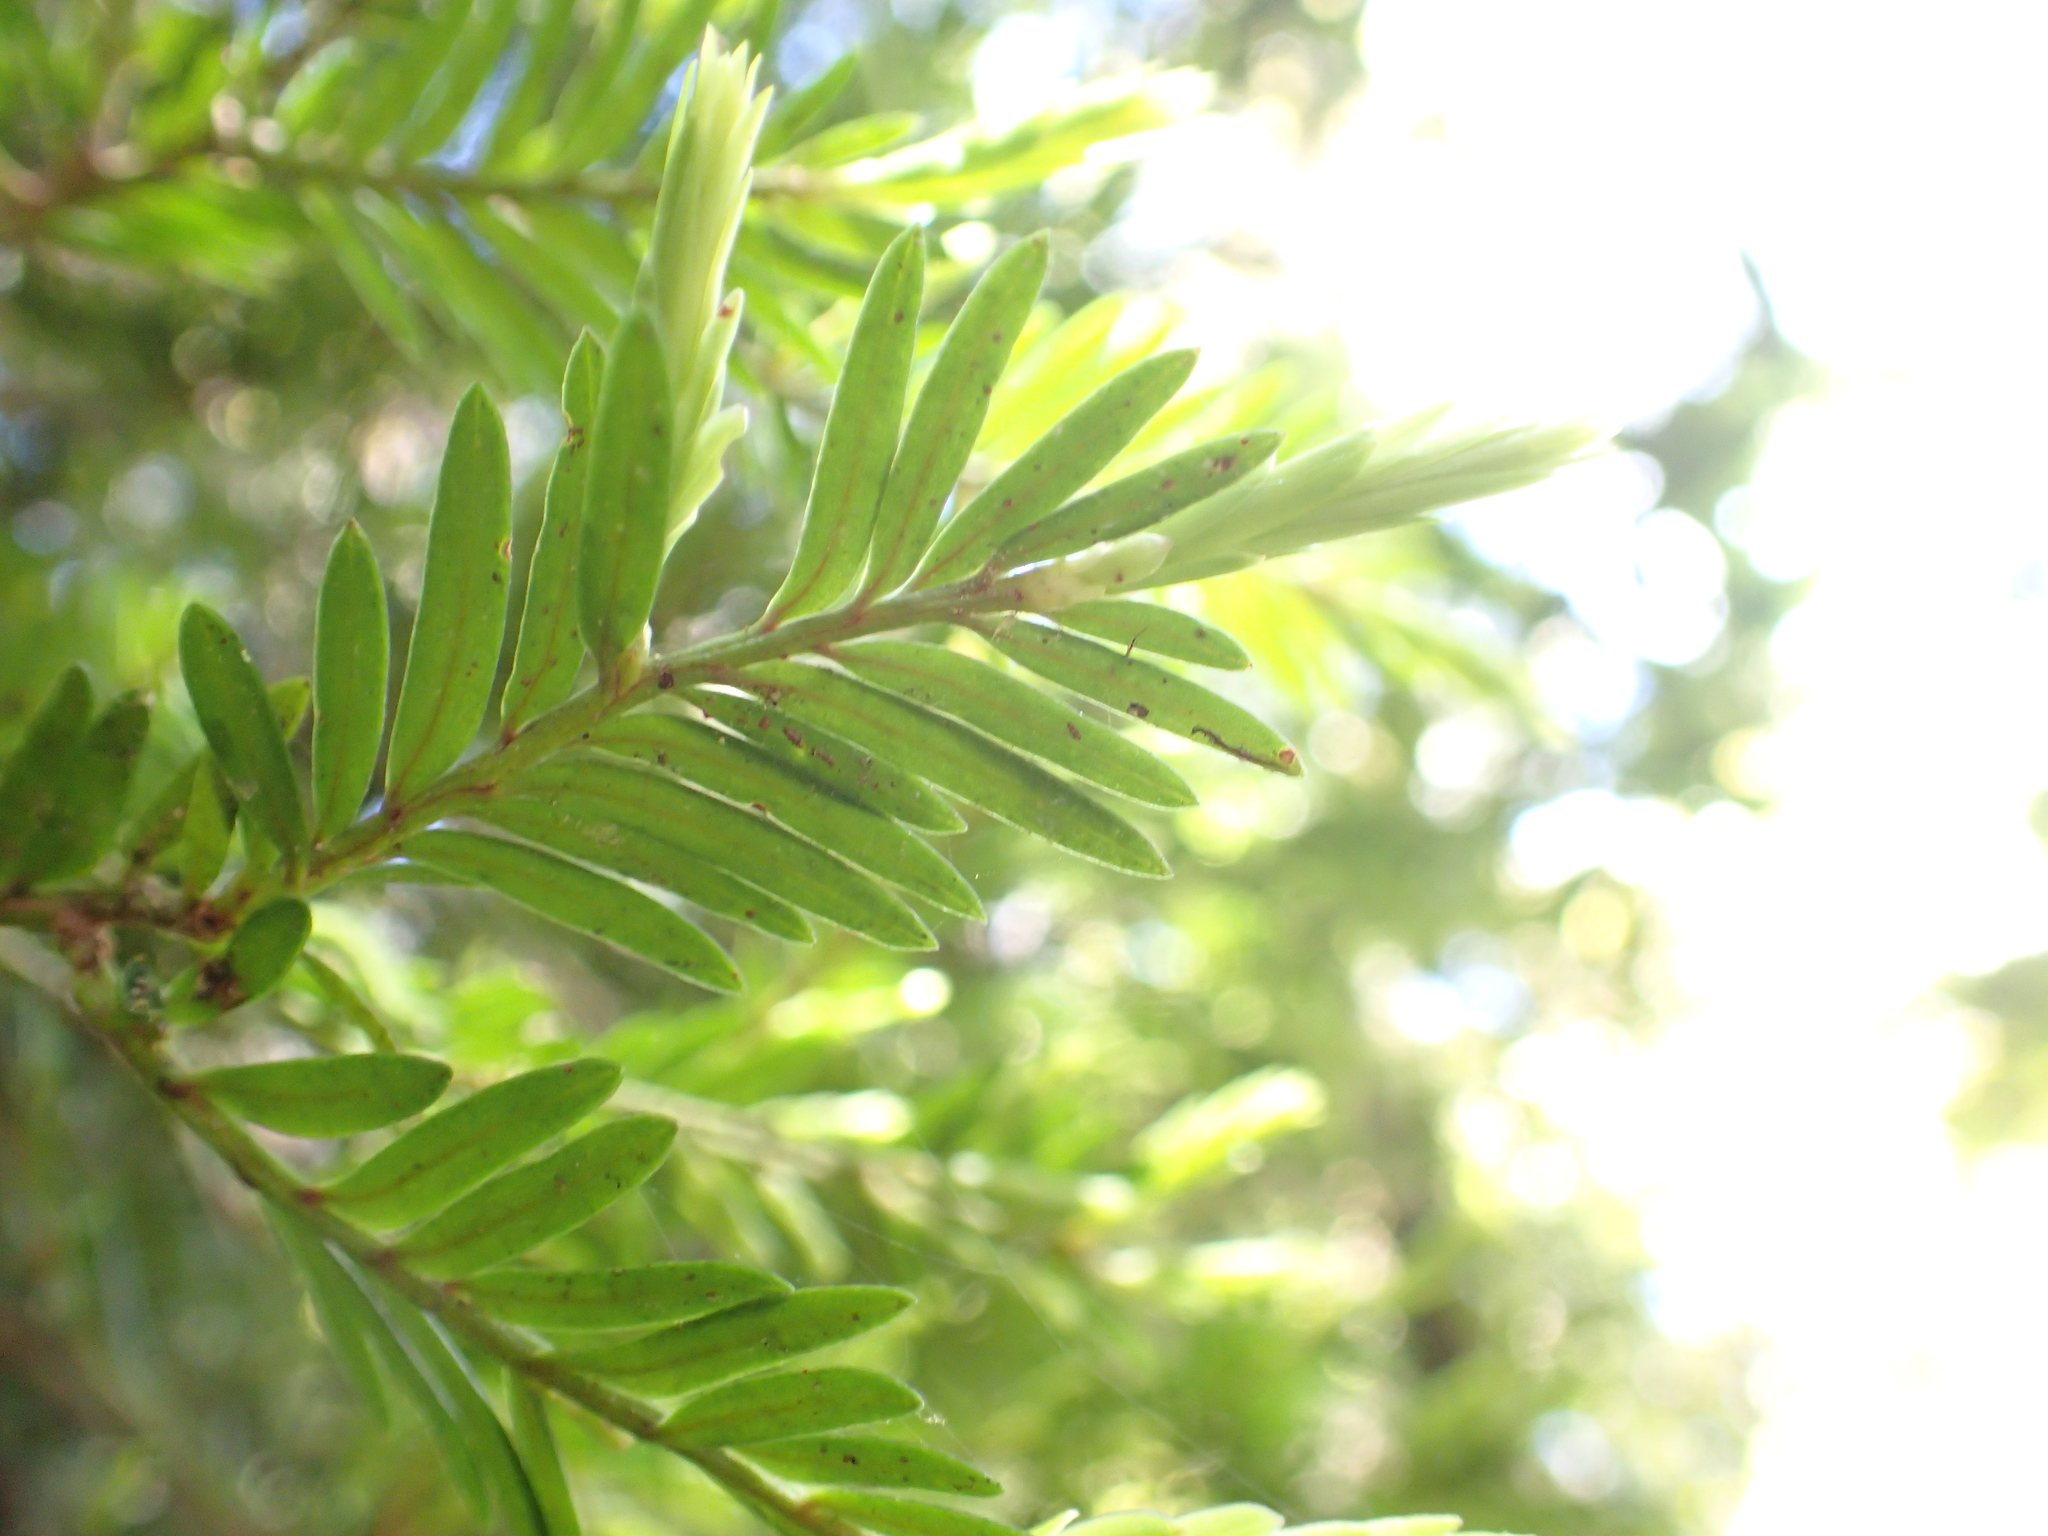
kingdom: Plantae
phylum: Tracheophyta
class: Pinopsida
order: Pinales
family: Podocarpaceae
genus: Prumnopitys
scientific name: Prumnopitys ferruginea
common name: Brown pine
